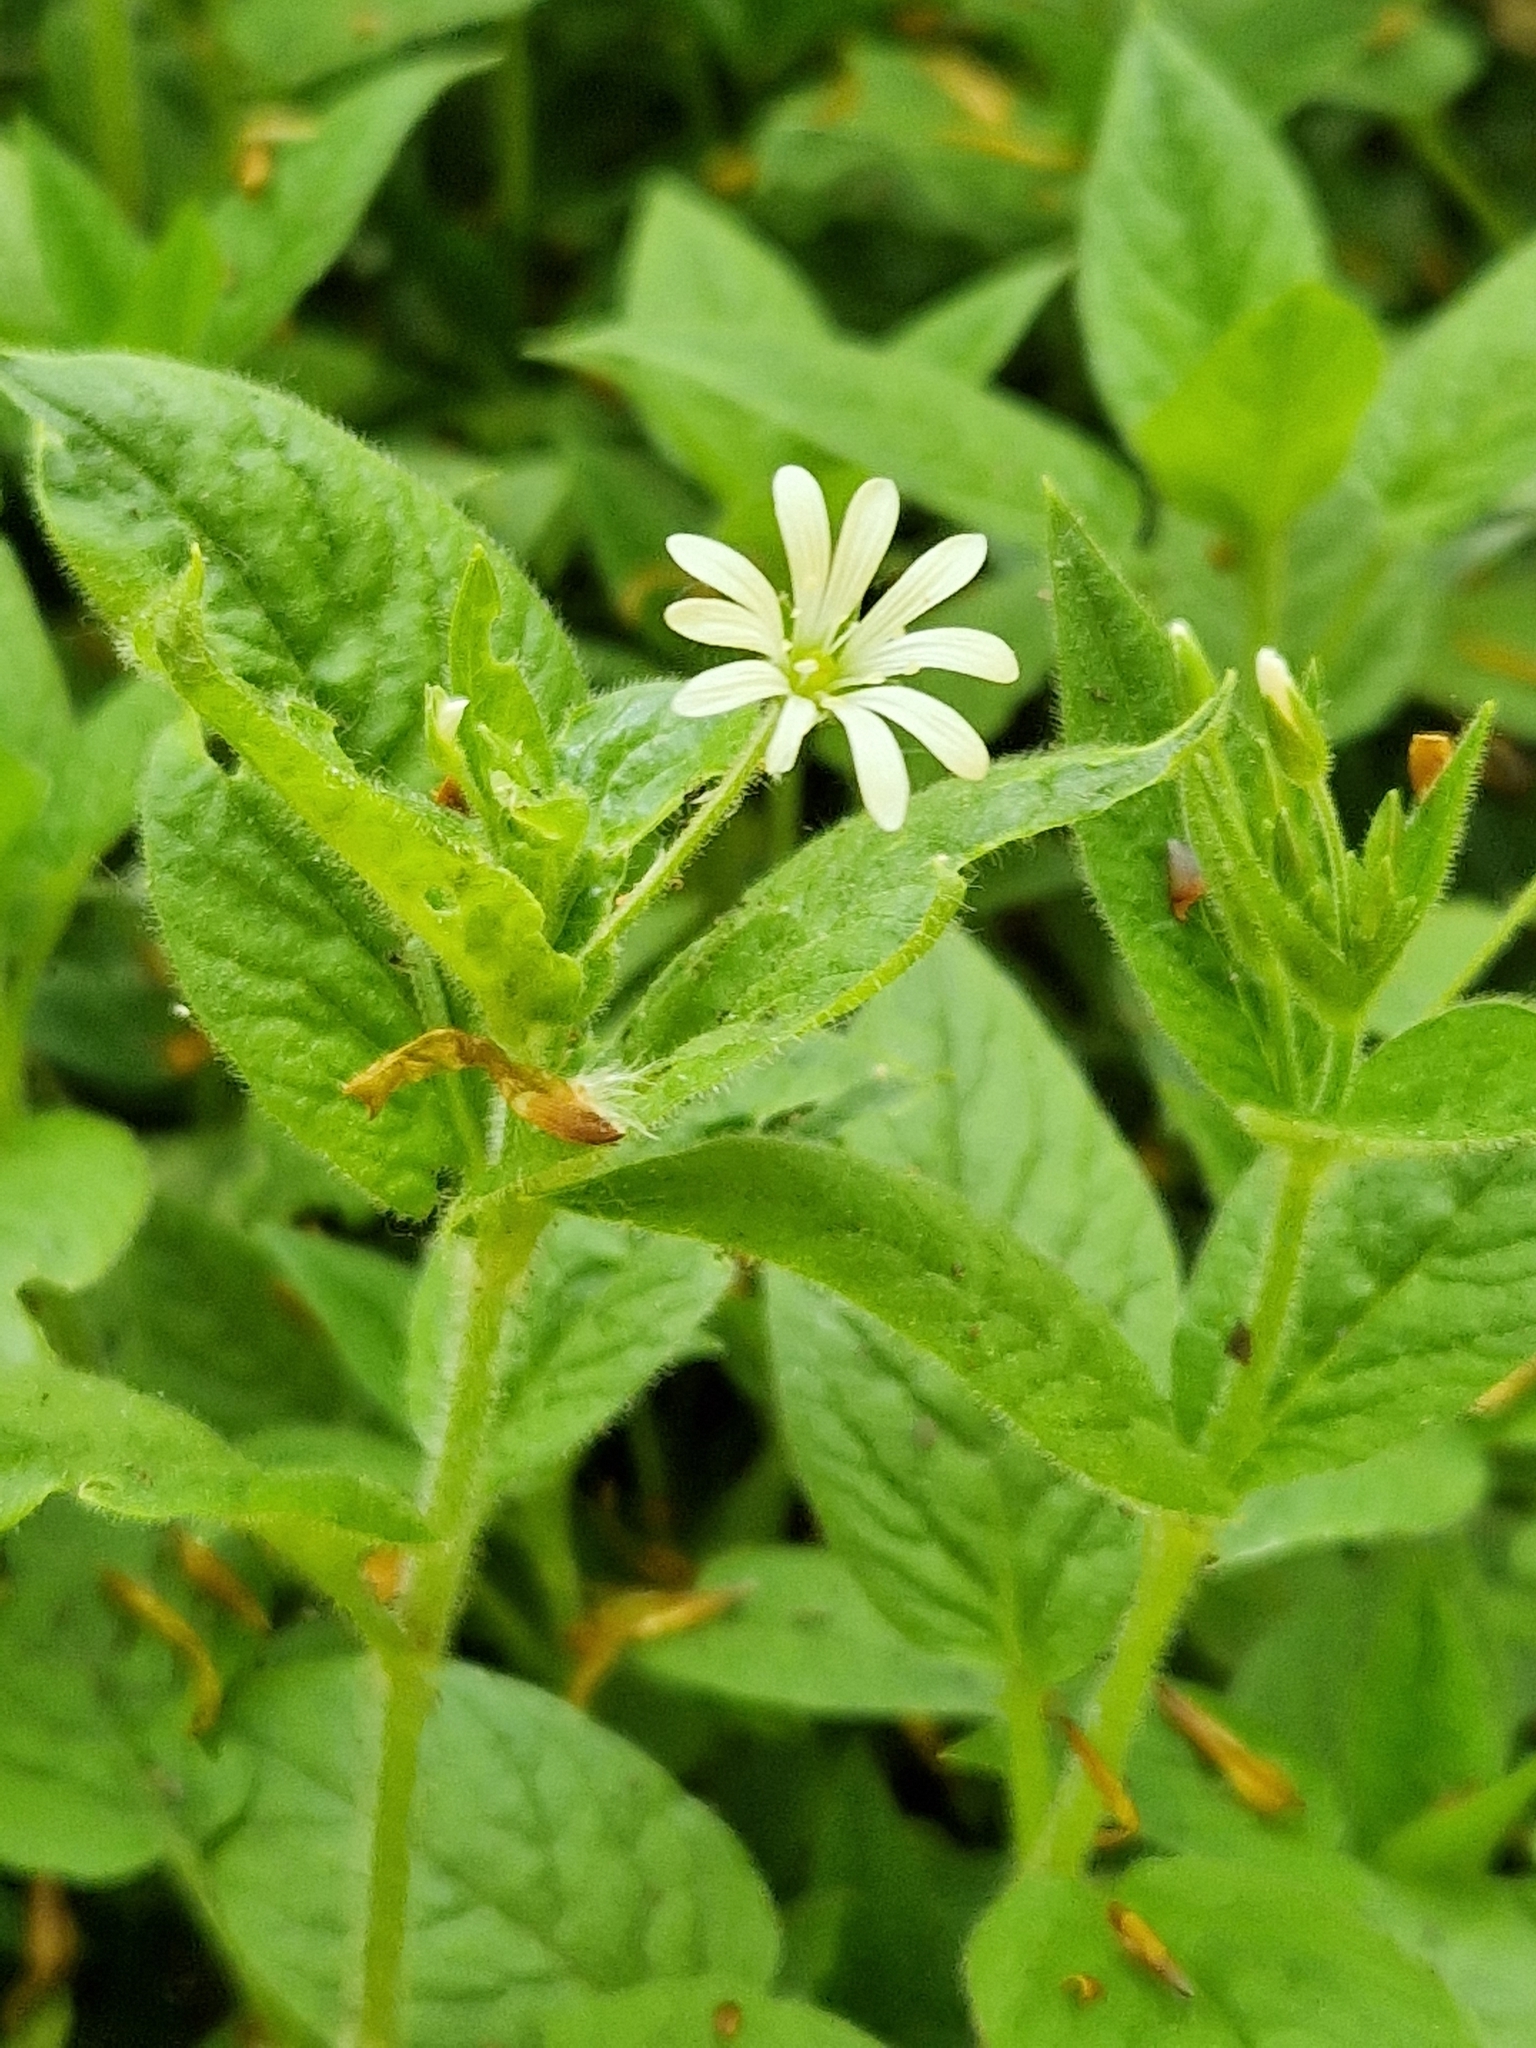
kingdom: Plantae
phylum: Tracheophyta
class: Magnoliopsida
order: Caryophyllales
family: Caryophyllaceae
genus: Stellaria
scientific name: Stellaria nemorum
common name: Wood stitchwort
